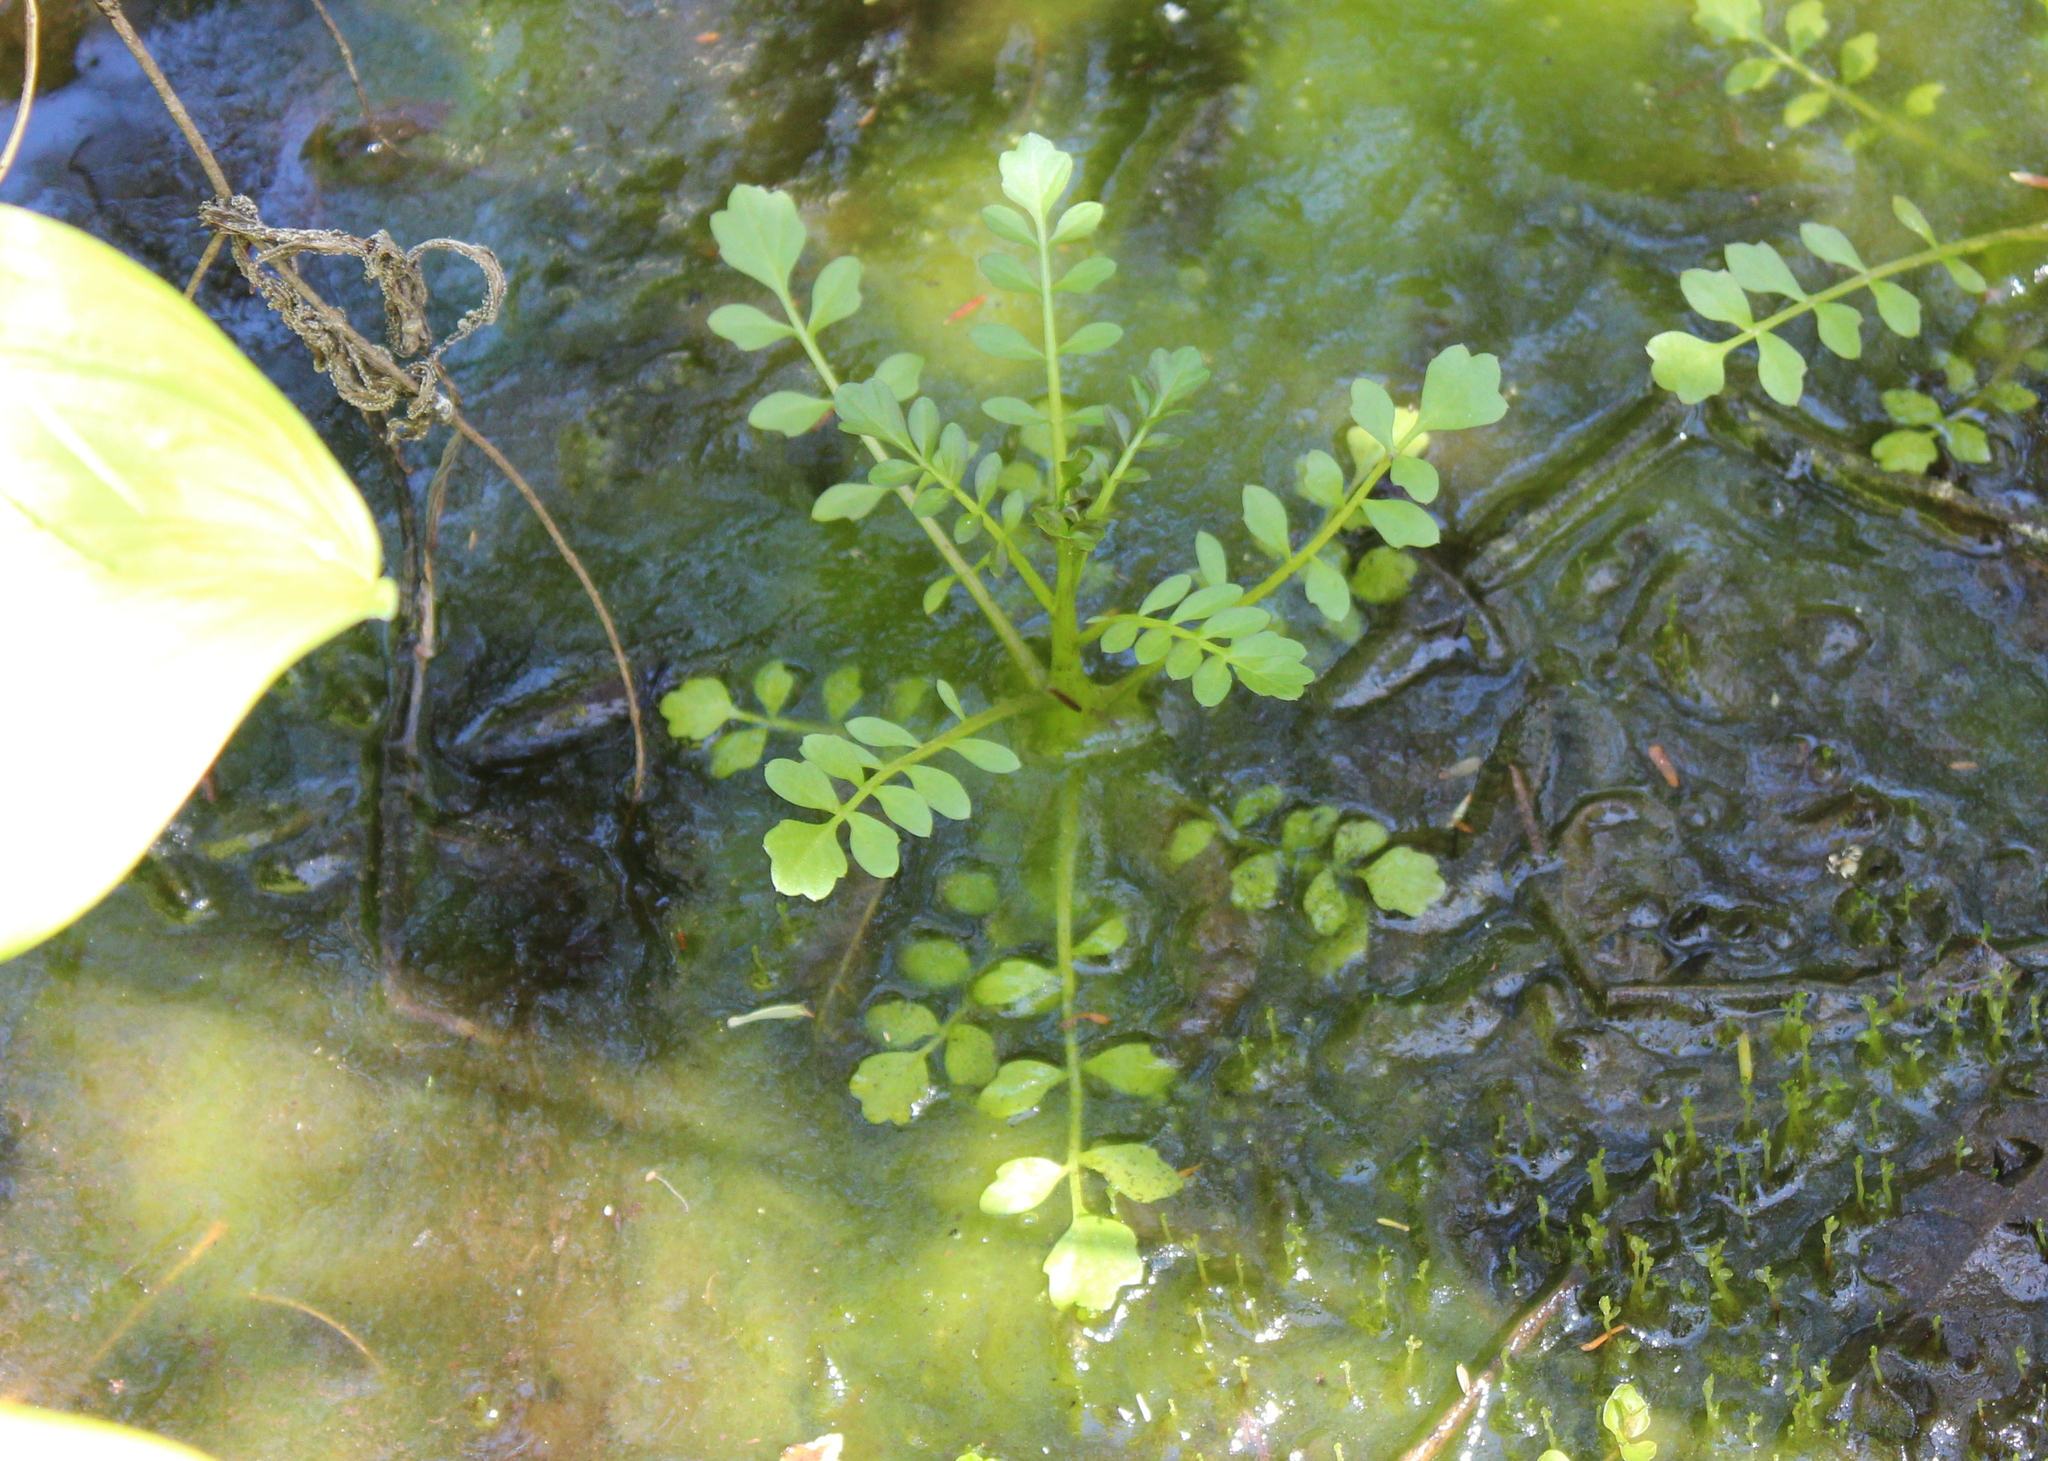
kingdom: Plantae
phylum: Tracheophyta
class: Magnoliopsida
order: Brassicales
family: Brassicaceae
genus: Cardamine
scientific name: Cardamine pensylvanica
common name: Pennsylvania bittercress
